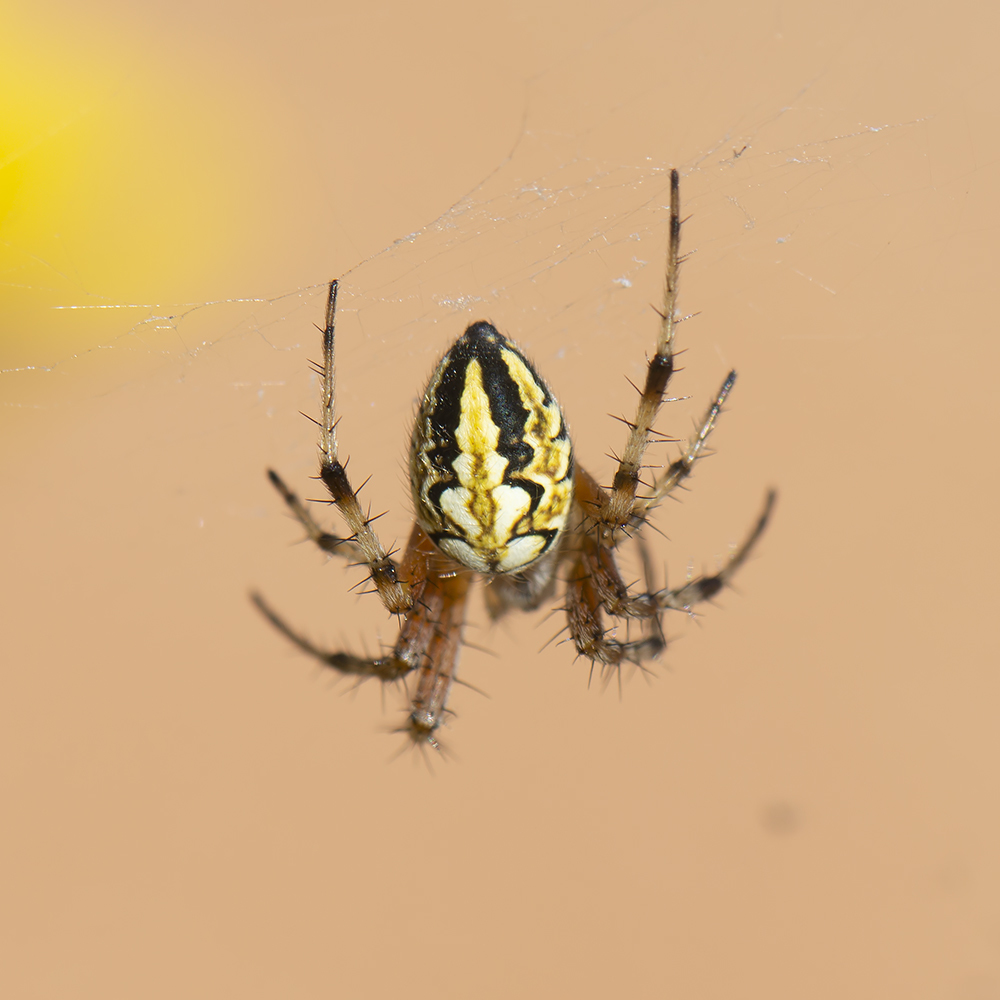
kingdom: Animalia
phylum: Arthropoda
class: Arachnida
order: Araneae
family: Araneidae
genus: Neoscona
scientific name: Neoscona adianta
